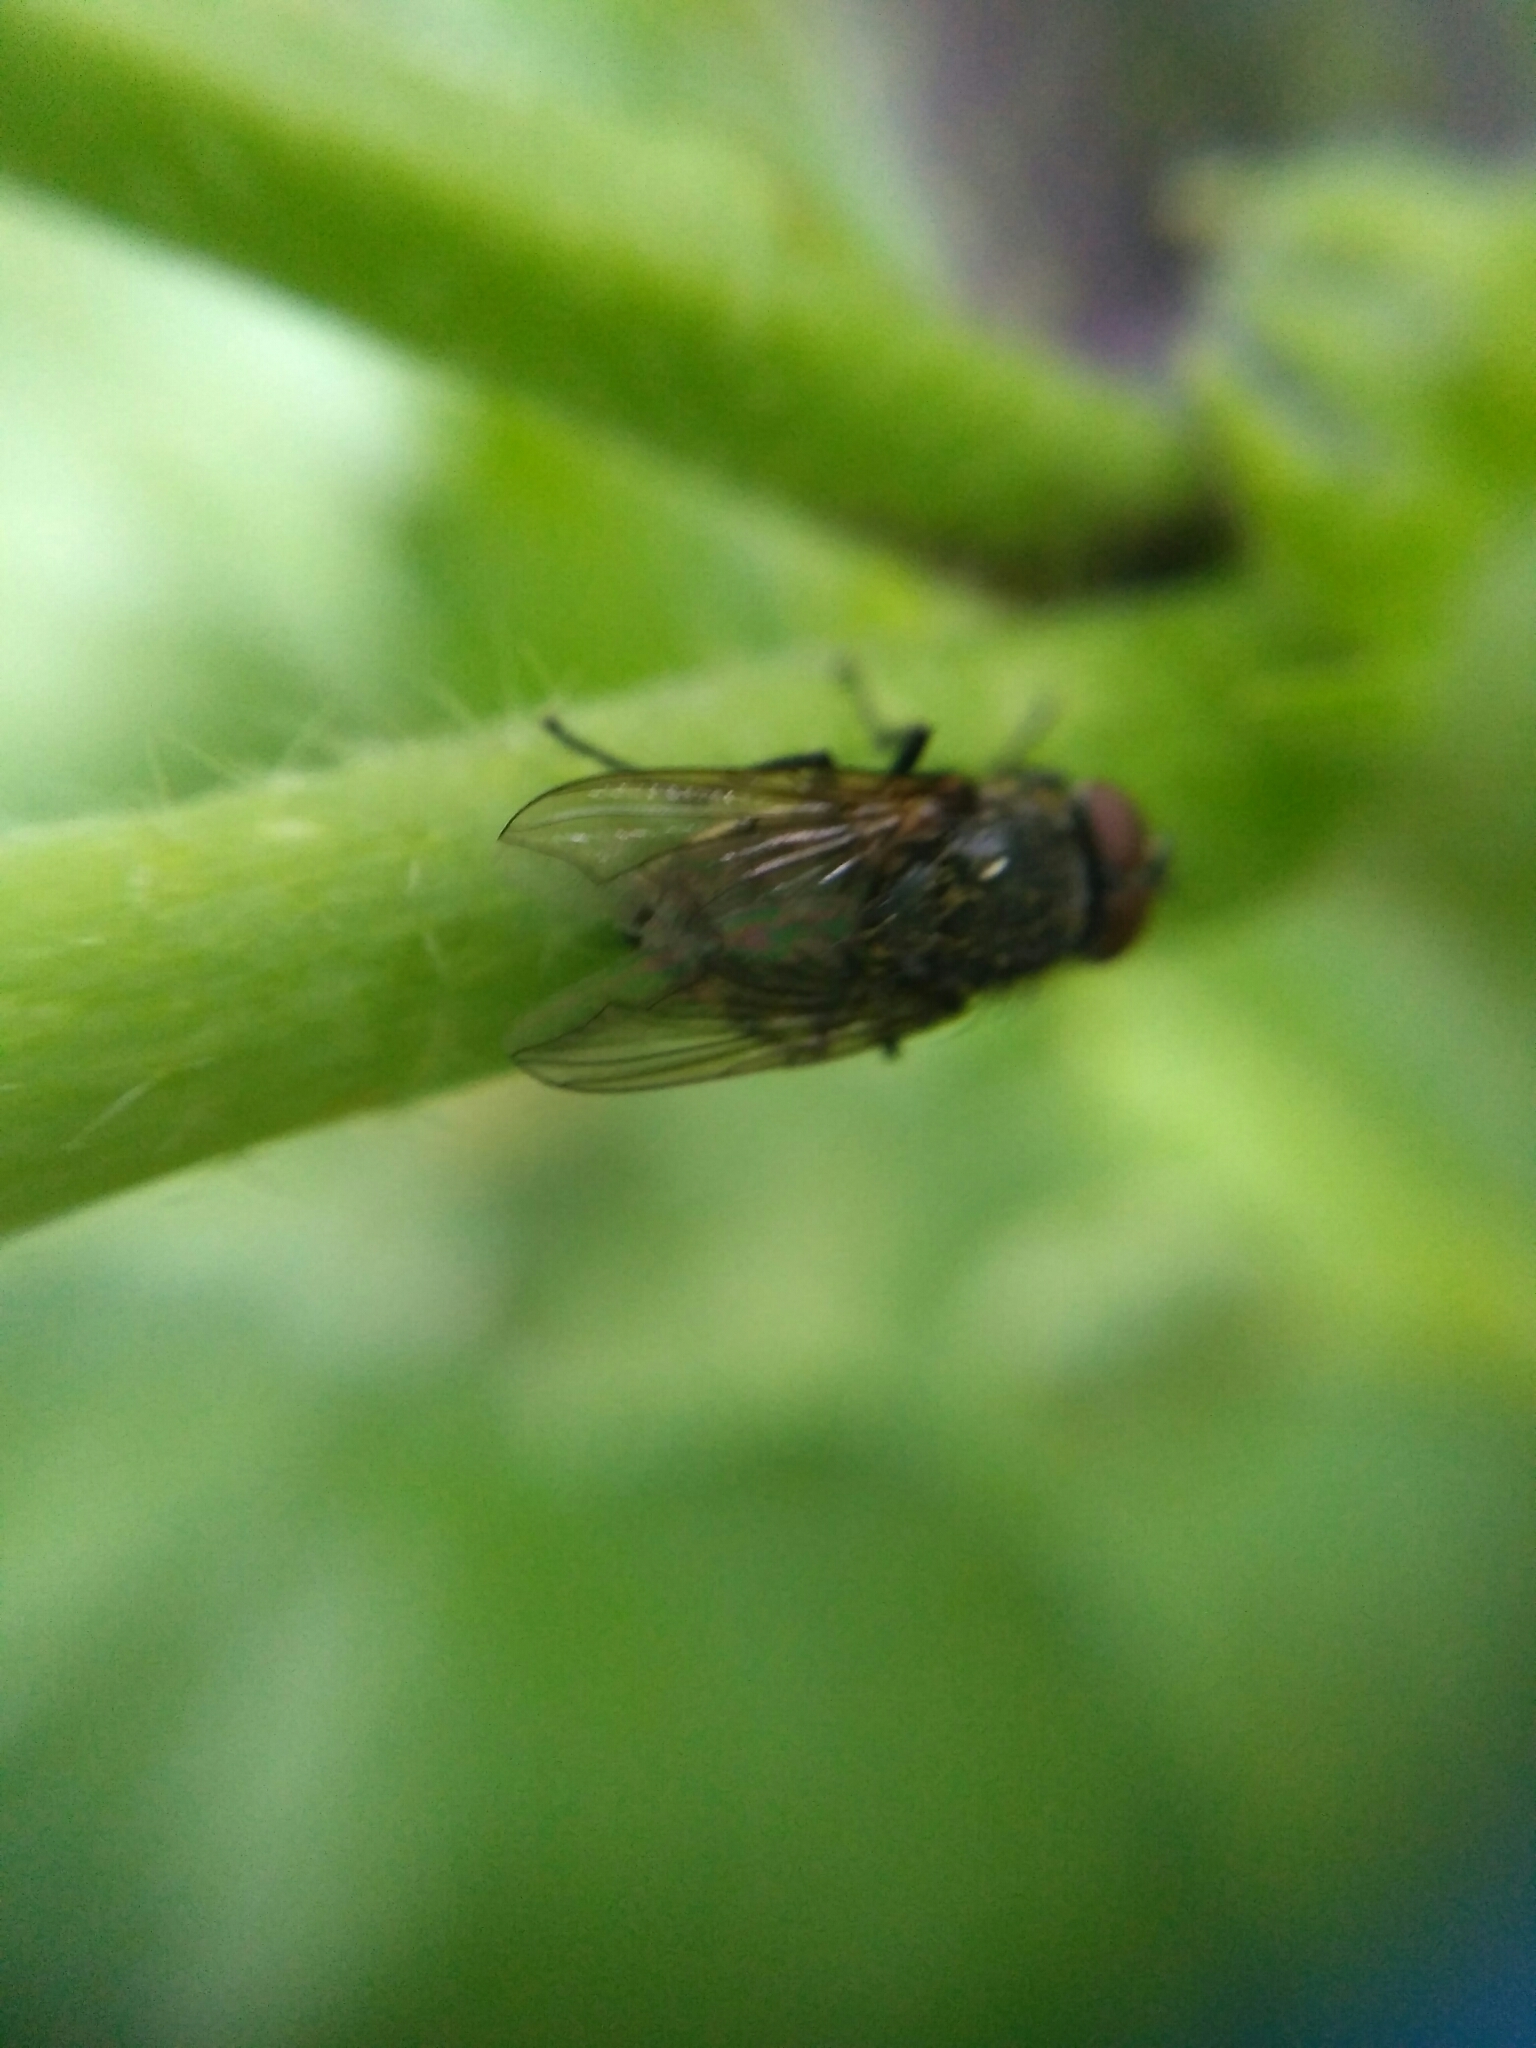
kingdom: Animalia
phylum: Arthropoda
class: Insecta
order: Diptera
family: Polleniidae
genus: Pollenia
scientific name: Pollenia
